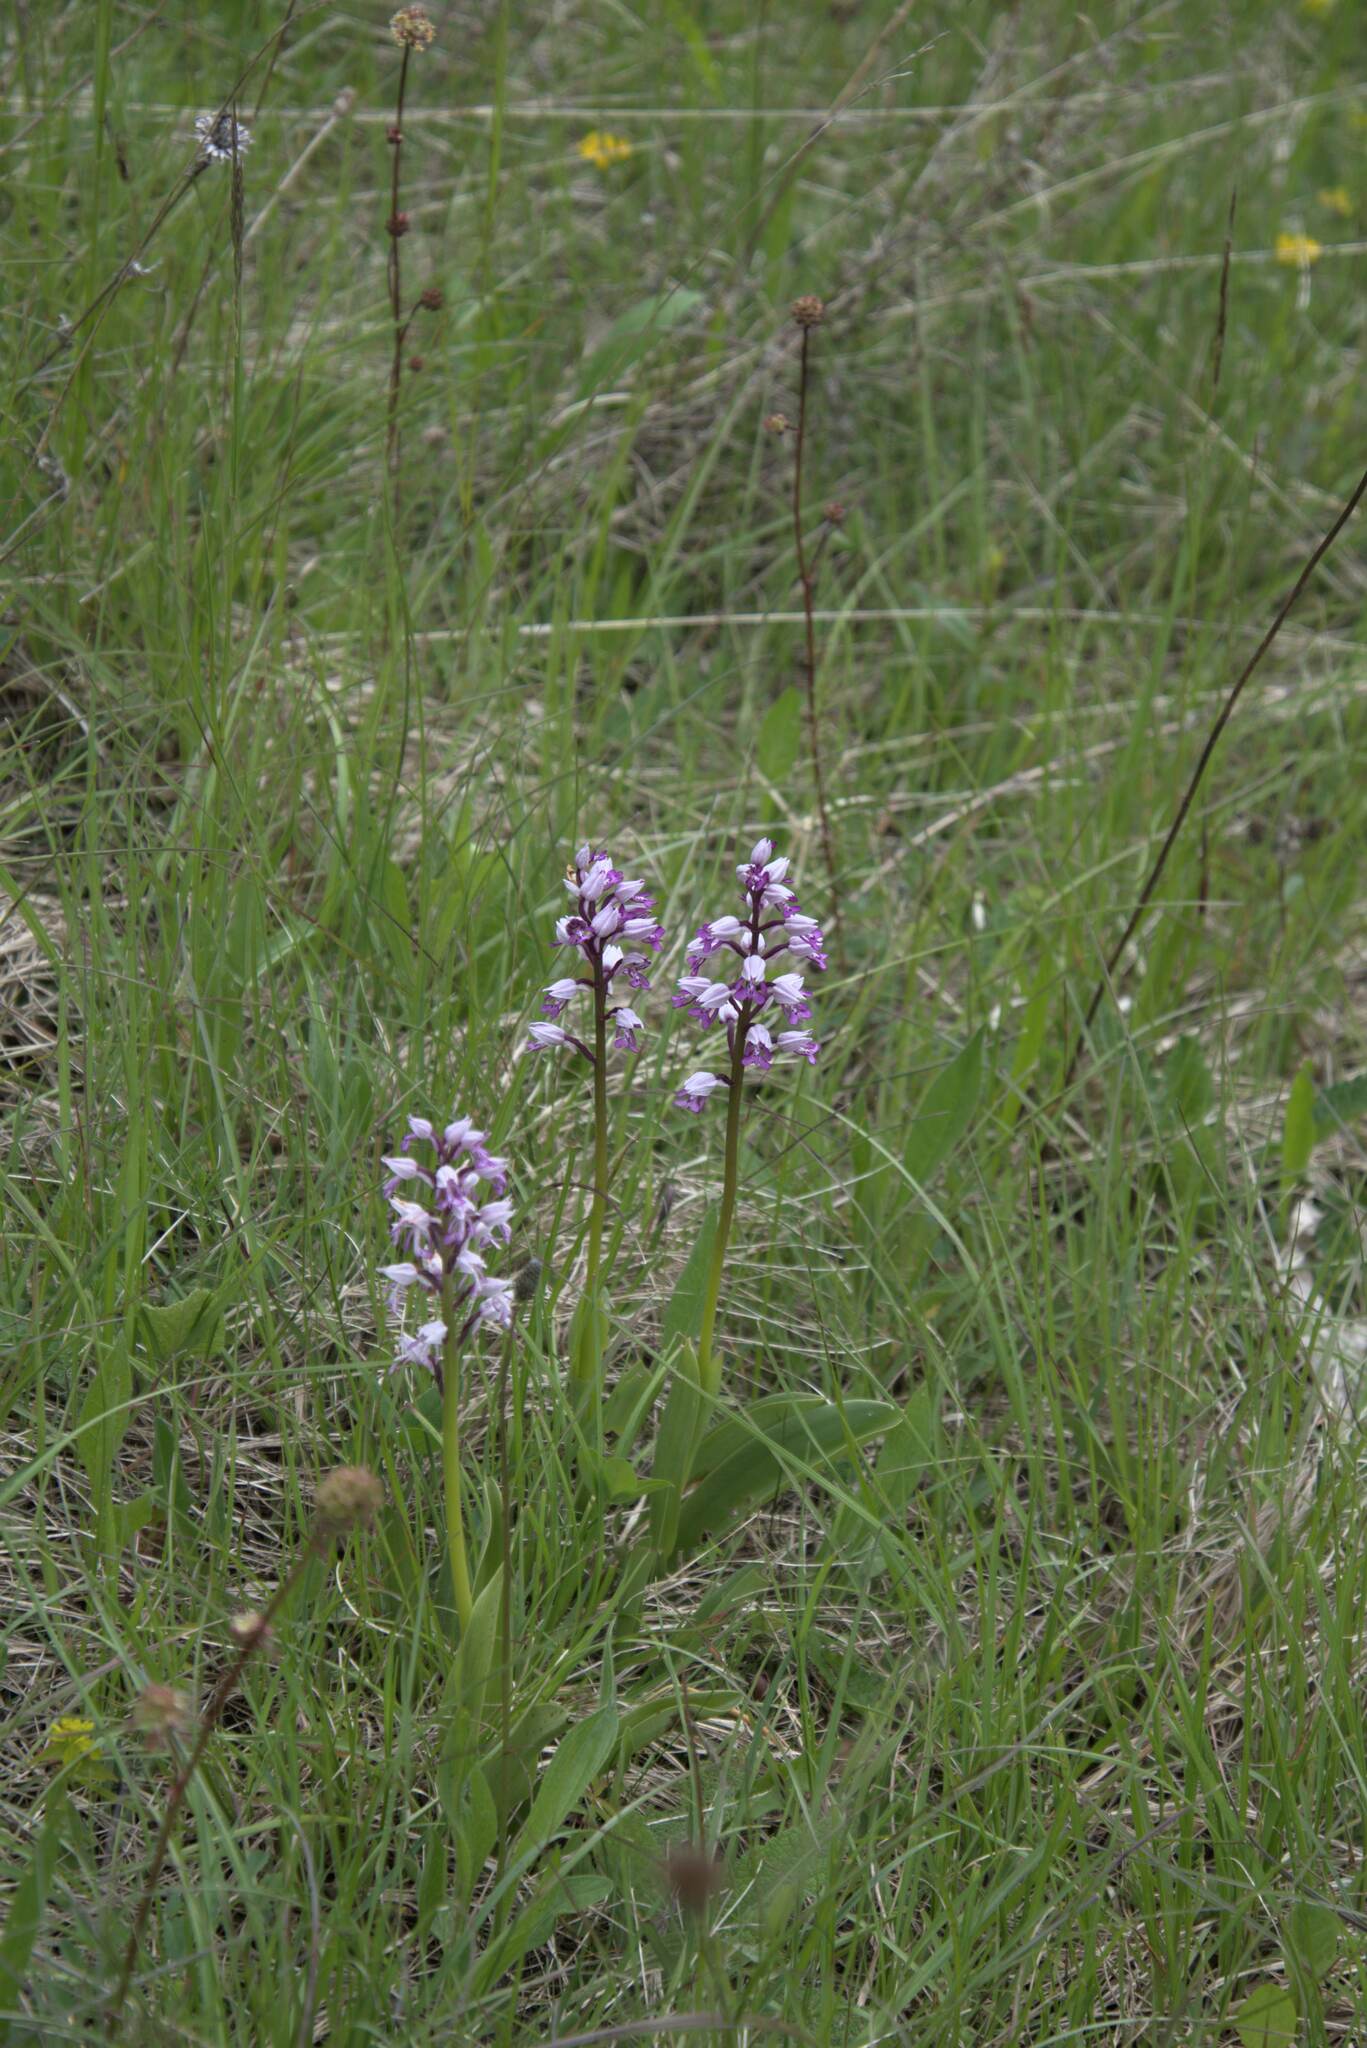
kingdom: Plantae
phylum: Tracheophyta
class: Liliopsida
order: Asparagales
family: Orchidaceae
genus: Orchis
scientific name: Orchis militaris
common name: Military orchid
